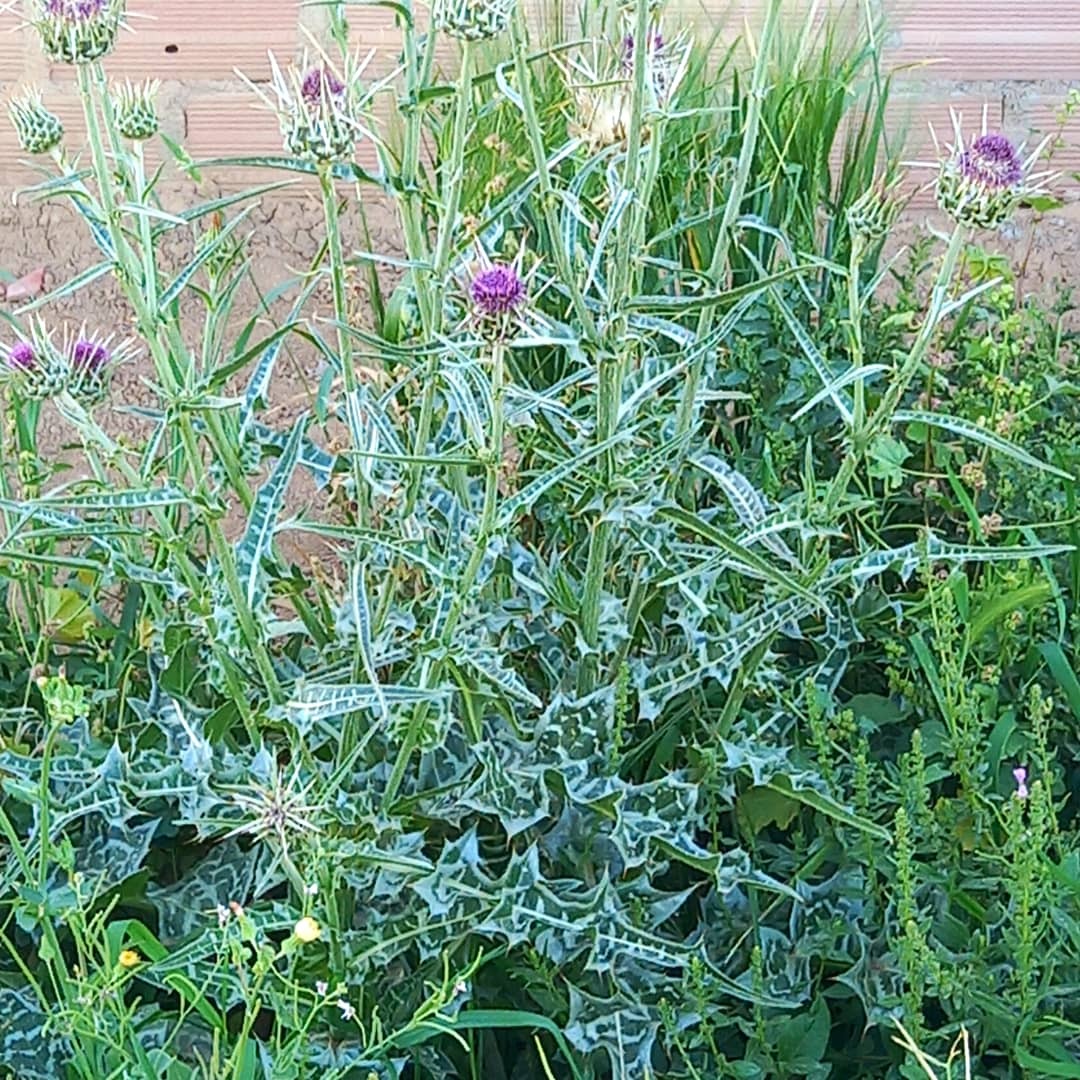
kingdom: Plantae
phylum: Tracheophyta
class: Magnoliopsida
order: Asterales
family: Asteraceae
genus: Silybum
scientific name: Silybum eburneum
